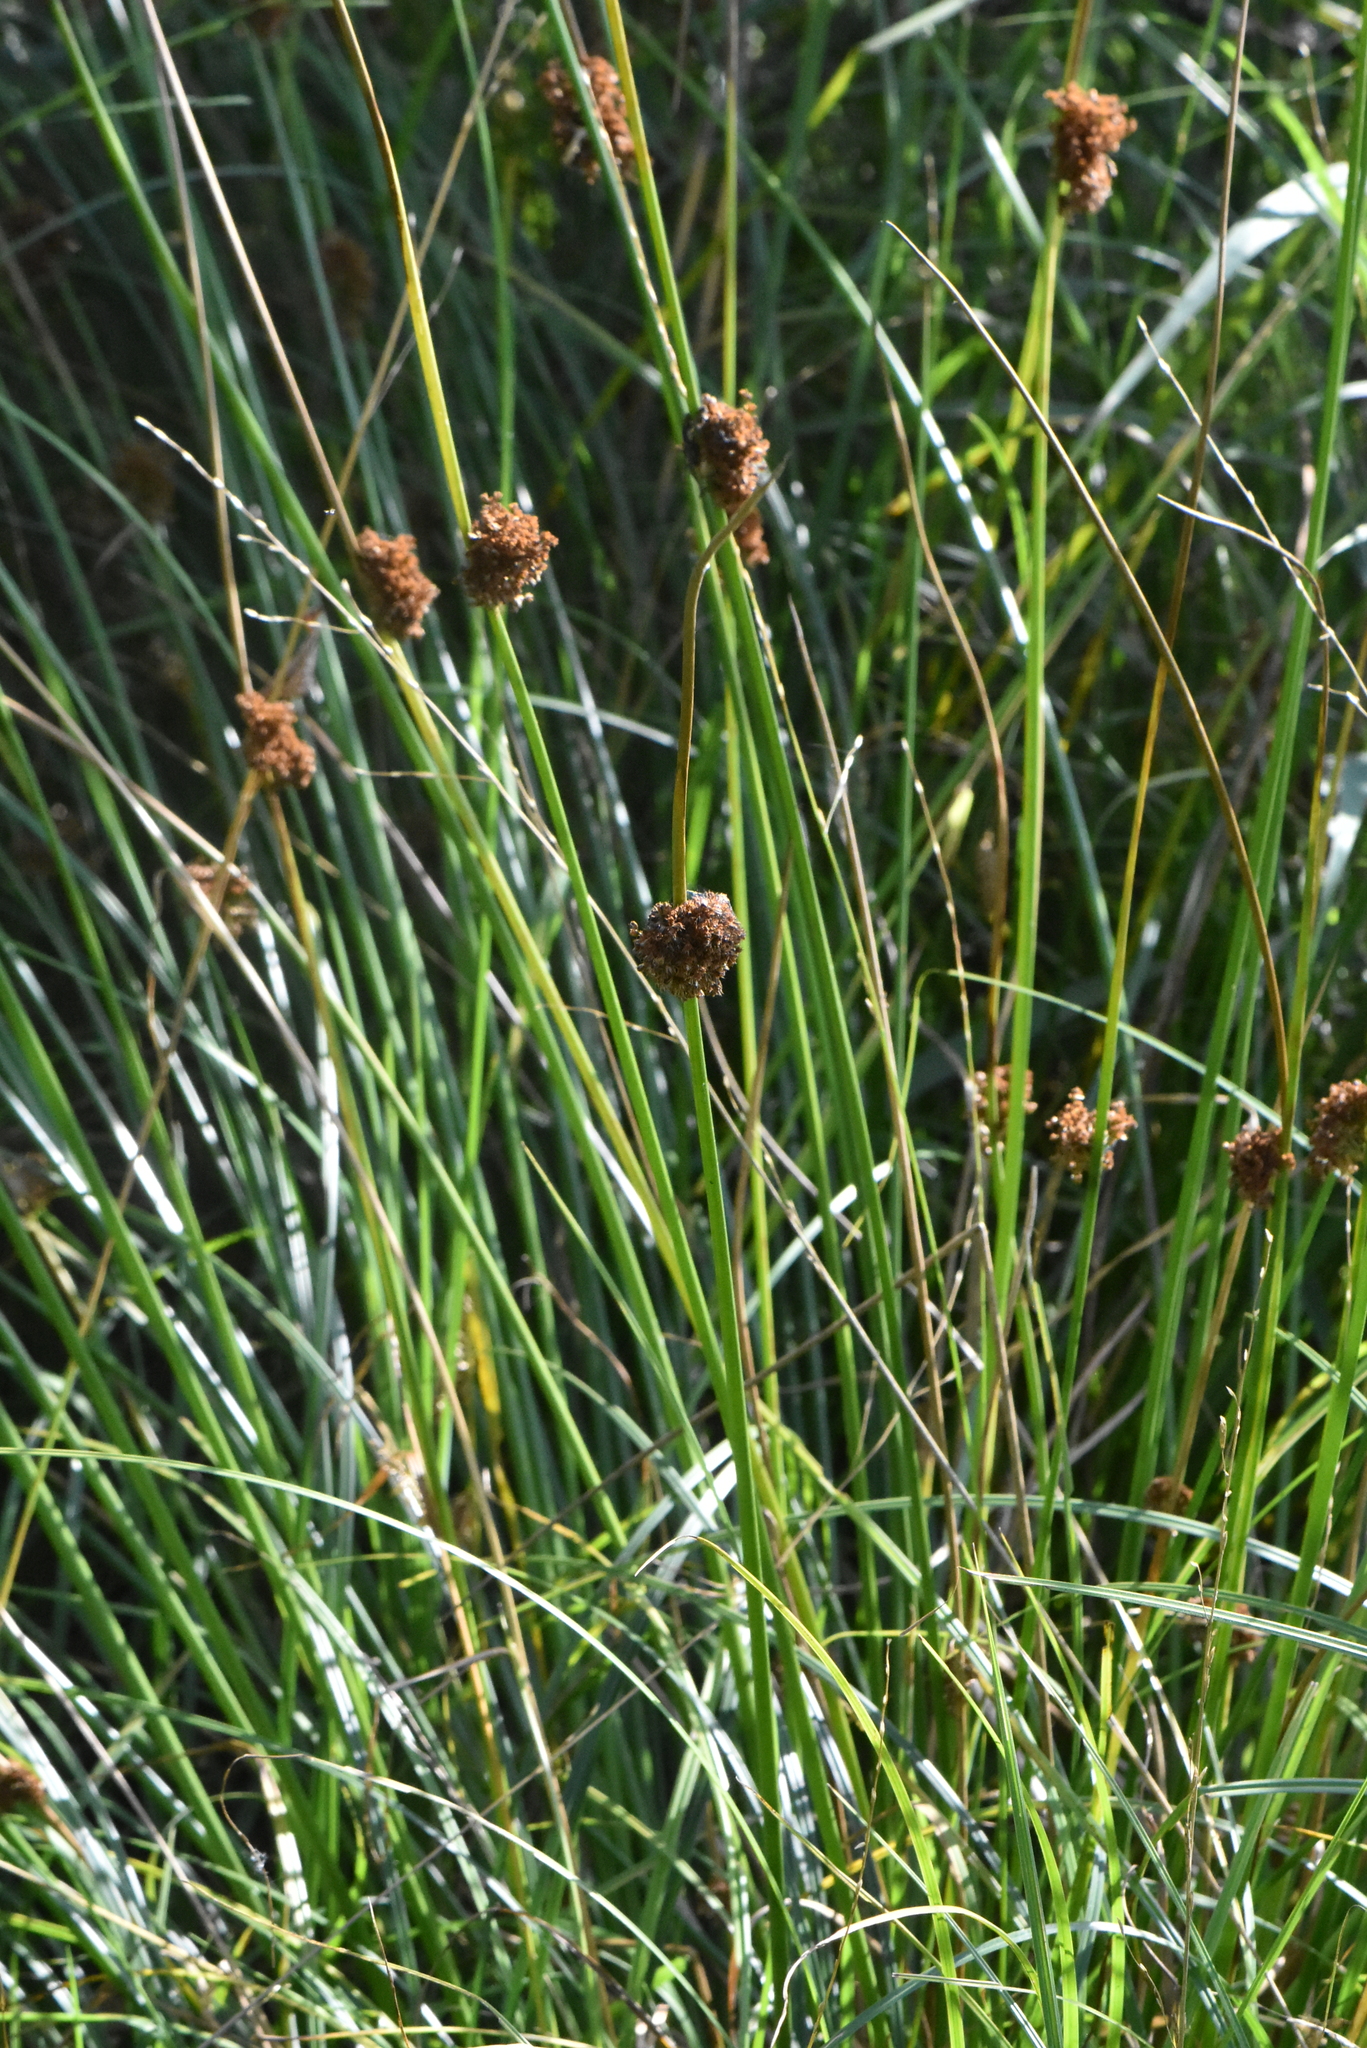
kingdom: Plantae
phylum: Tracheophyta
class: Liliopsida
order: Poales
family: Juncaceae
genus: Juncus
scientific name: Juncus conglomeratus
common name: Compact rush
